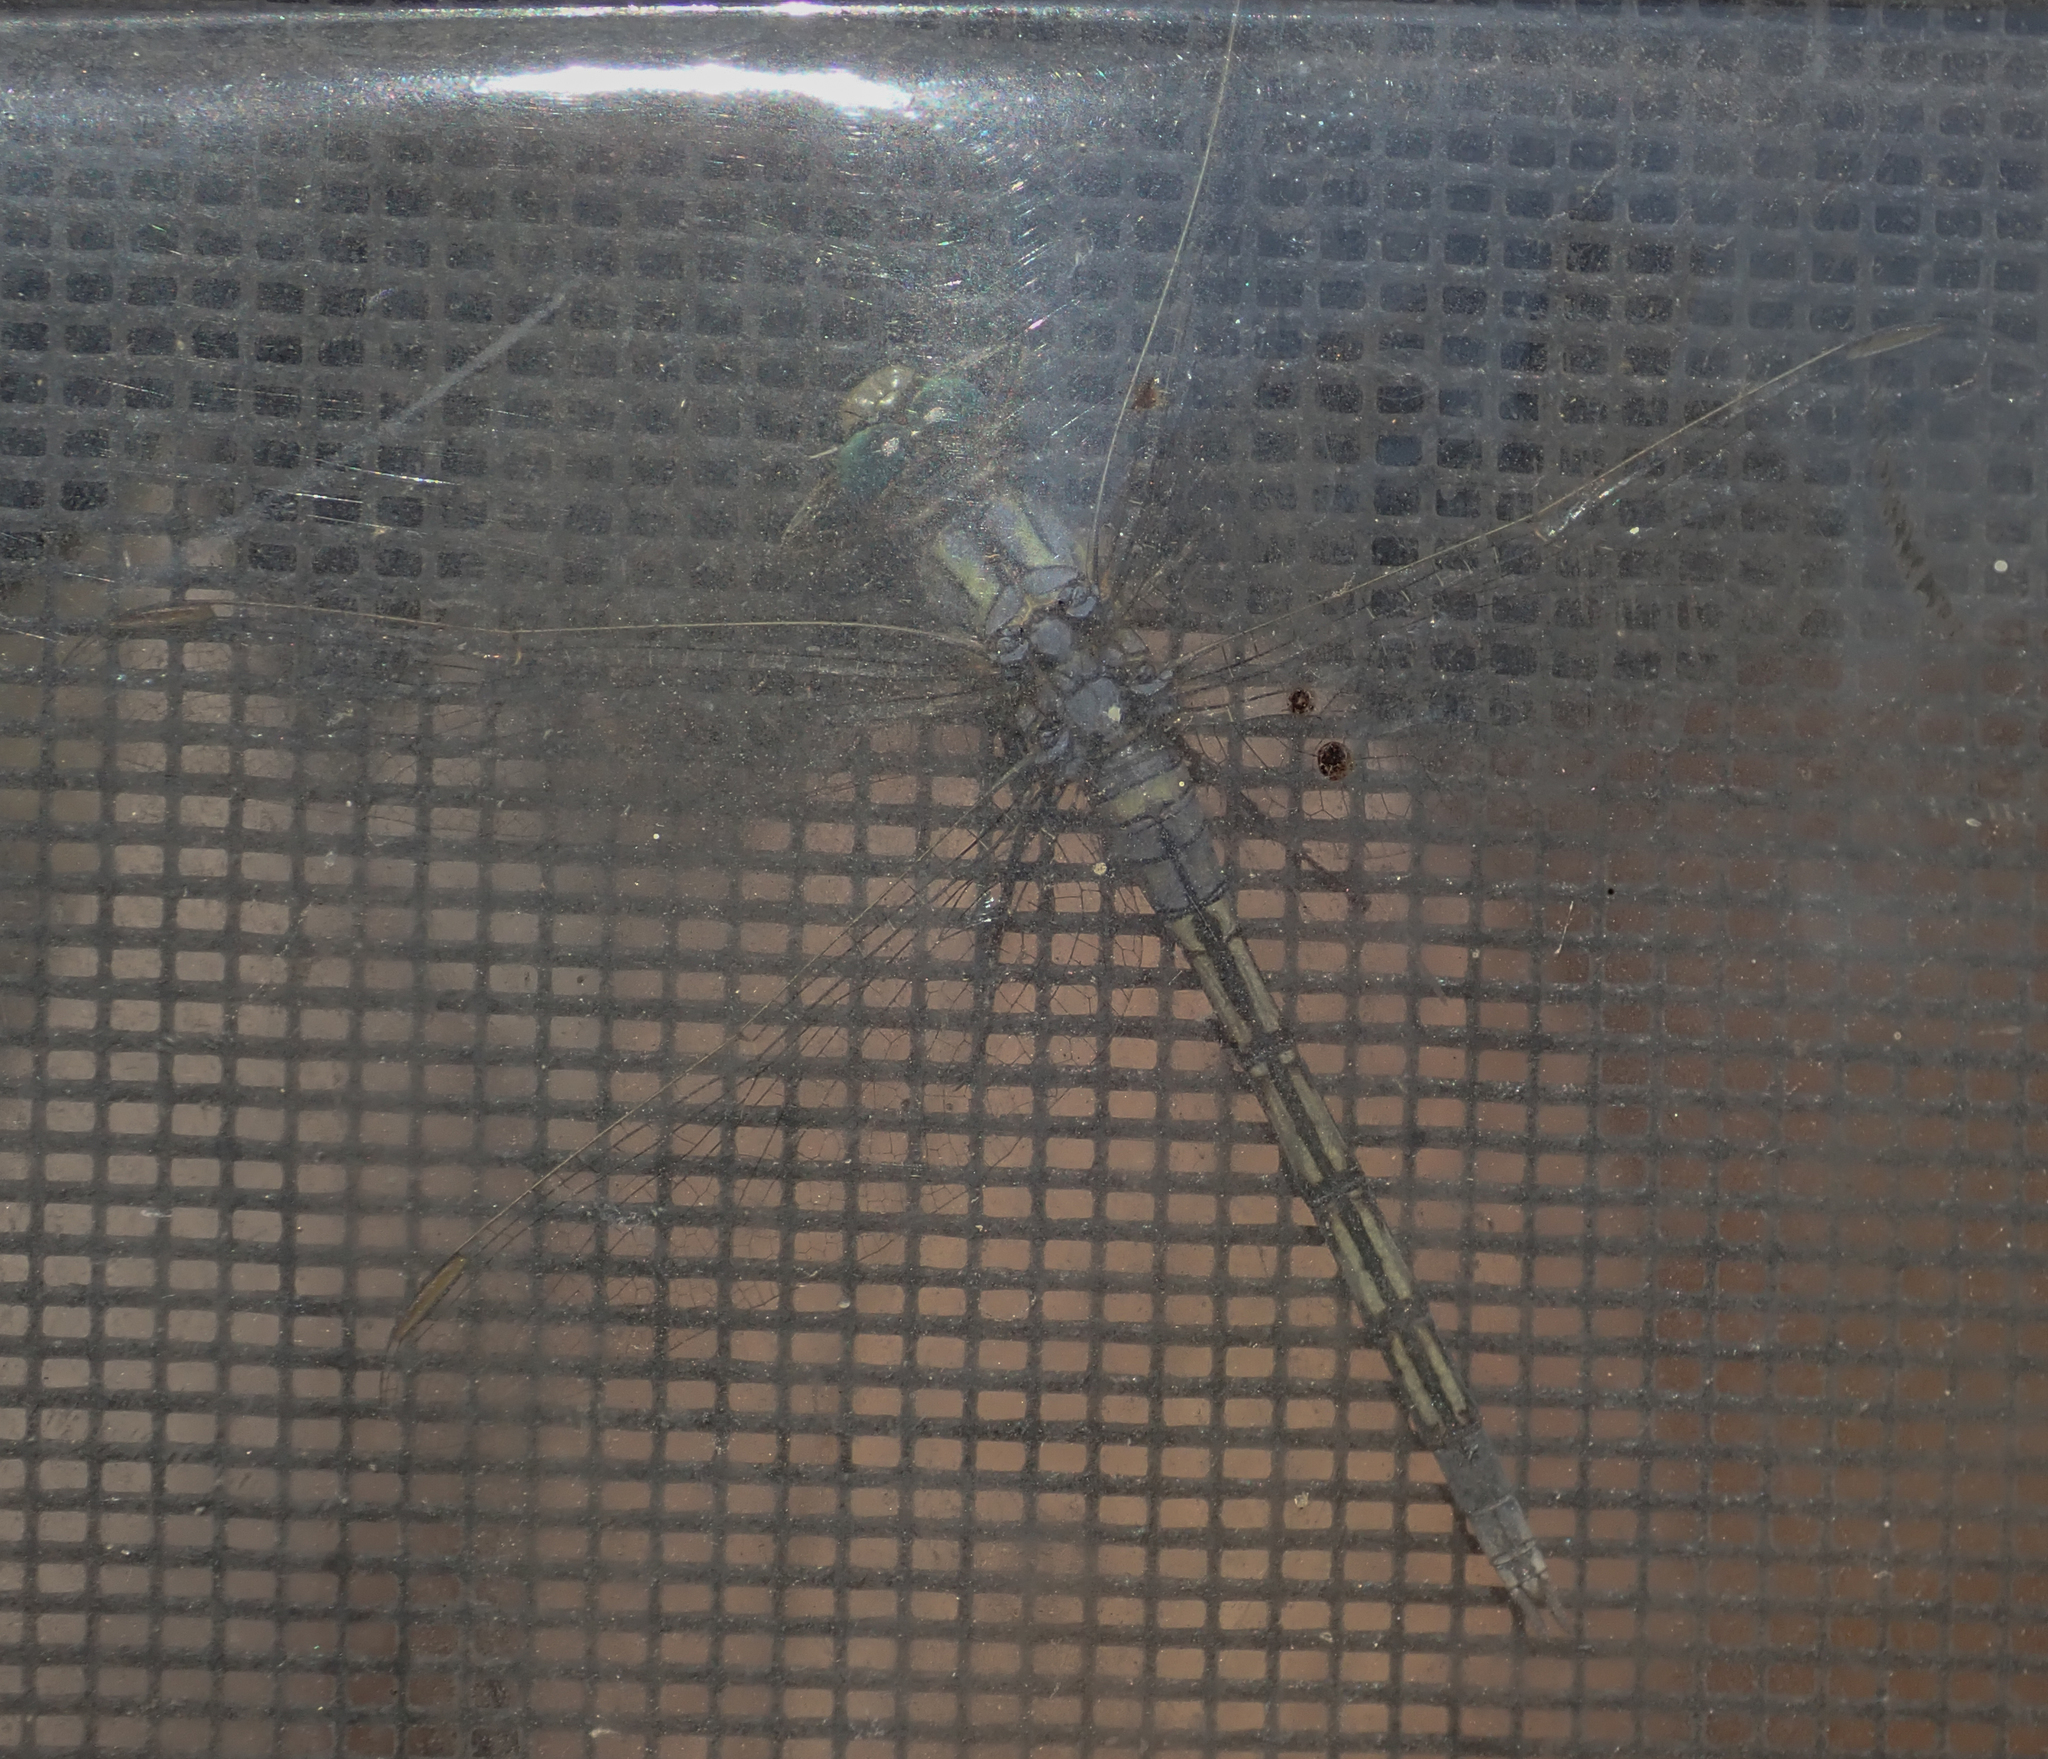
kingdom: Animalia
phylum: Arthropoda
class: Insecta
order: Odonata
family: Libellulidae
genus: Orthetrum
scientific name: Orthetrum trinacria
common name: Long skimmer
